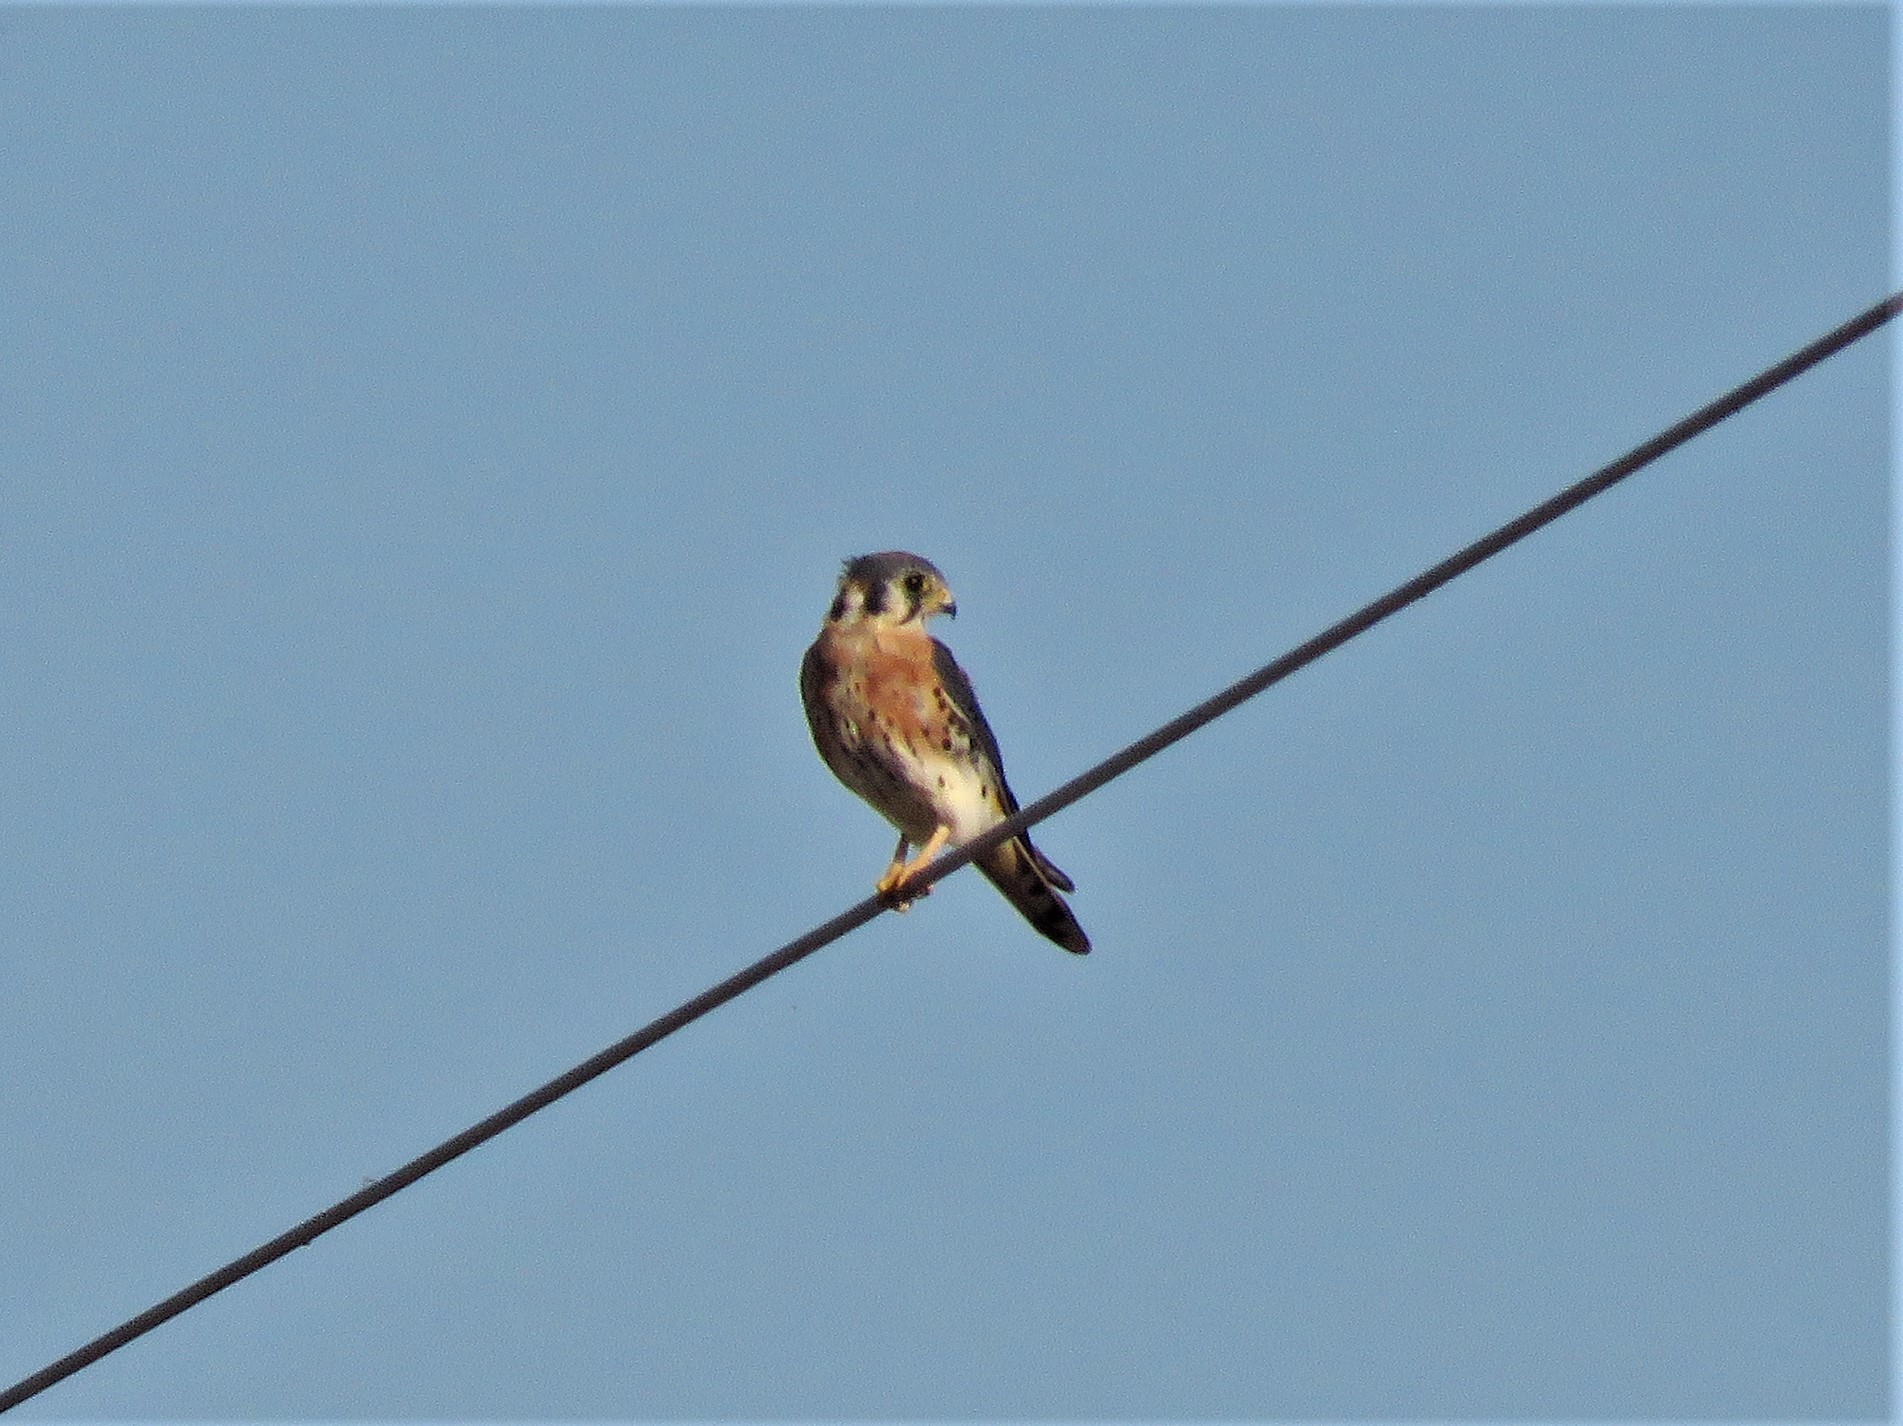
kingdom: Animalia
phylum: Chordata
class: Aves
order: Falconiformes
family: Falconidae
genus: Falco
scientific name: Falco sparverius
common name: American kestrel
